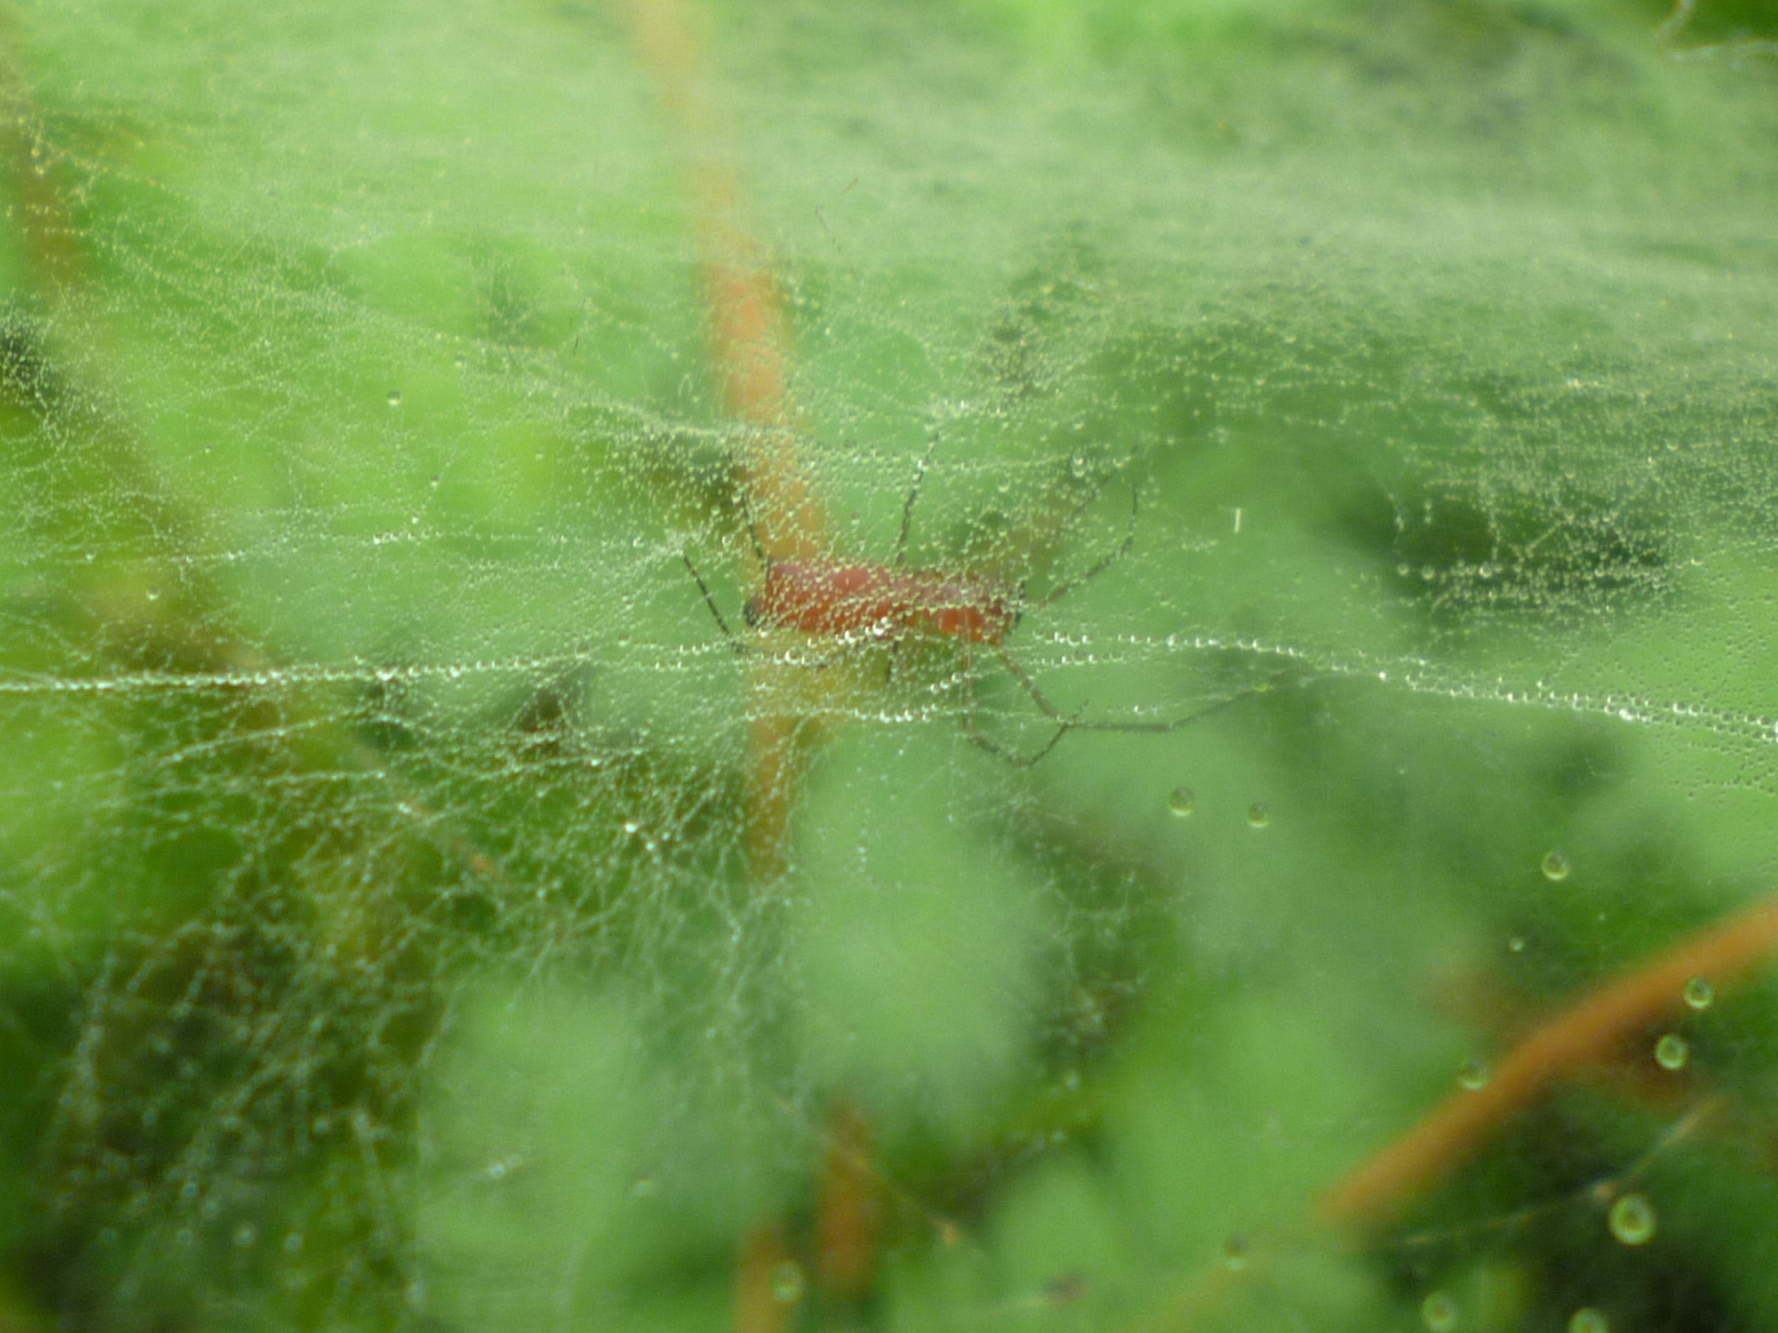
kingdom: Animalia
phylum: Arthropoda
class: Arachnida
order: Araneae
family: Linyphiidae
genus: Florinda
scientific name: Florinda coccinea
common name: Black-tailed red sheetweaver
